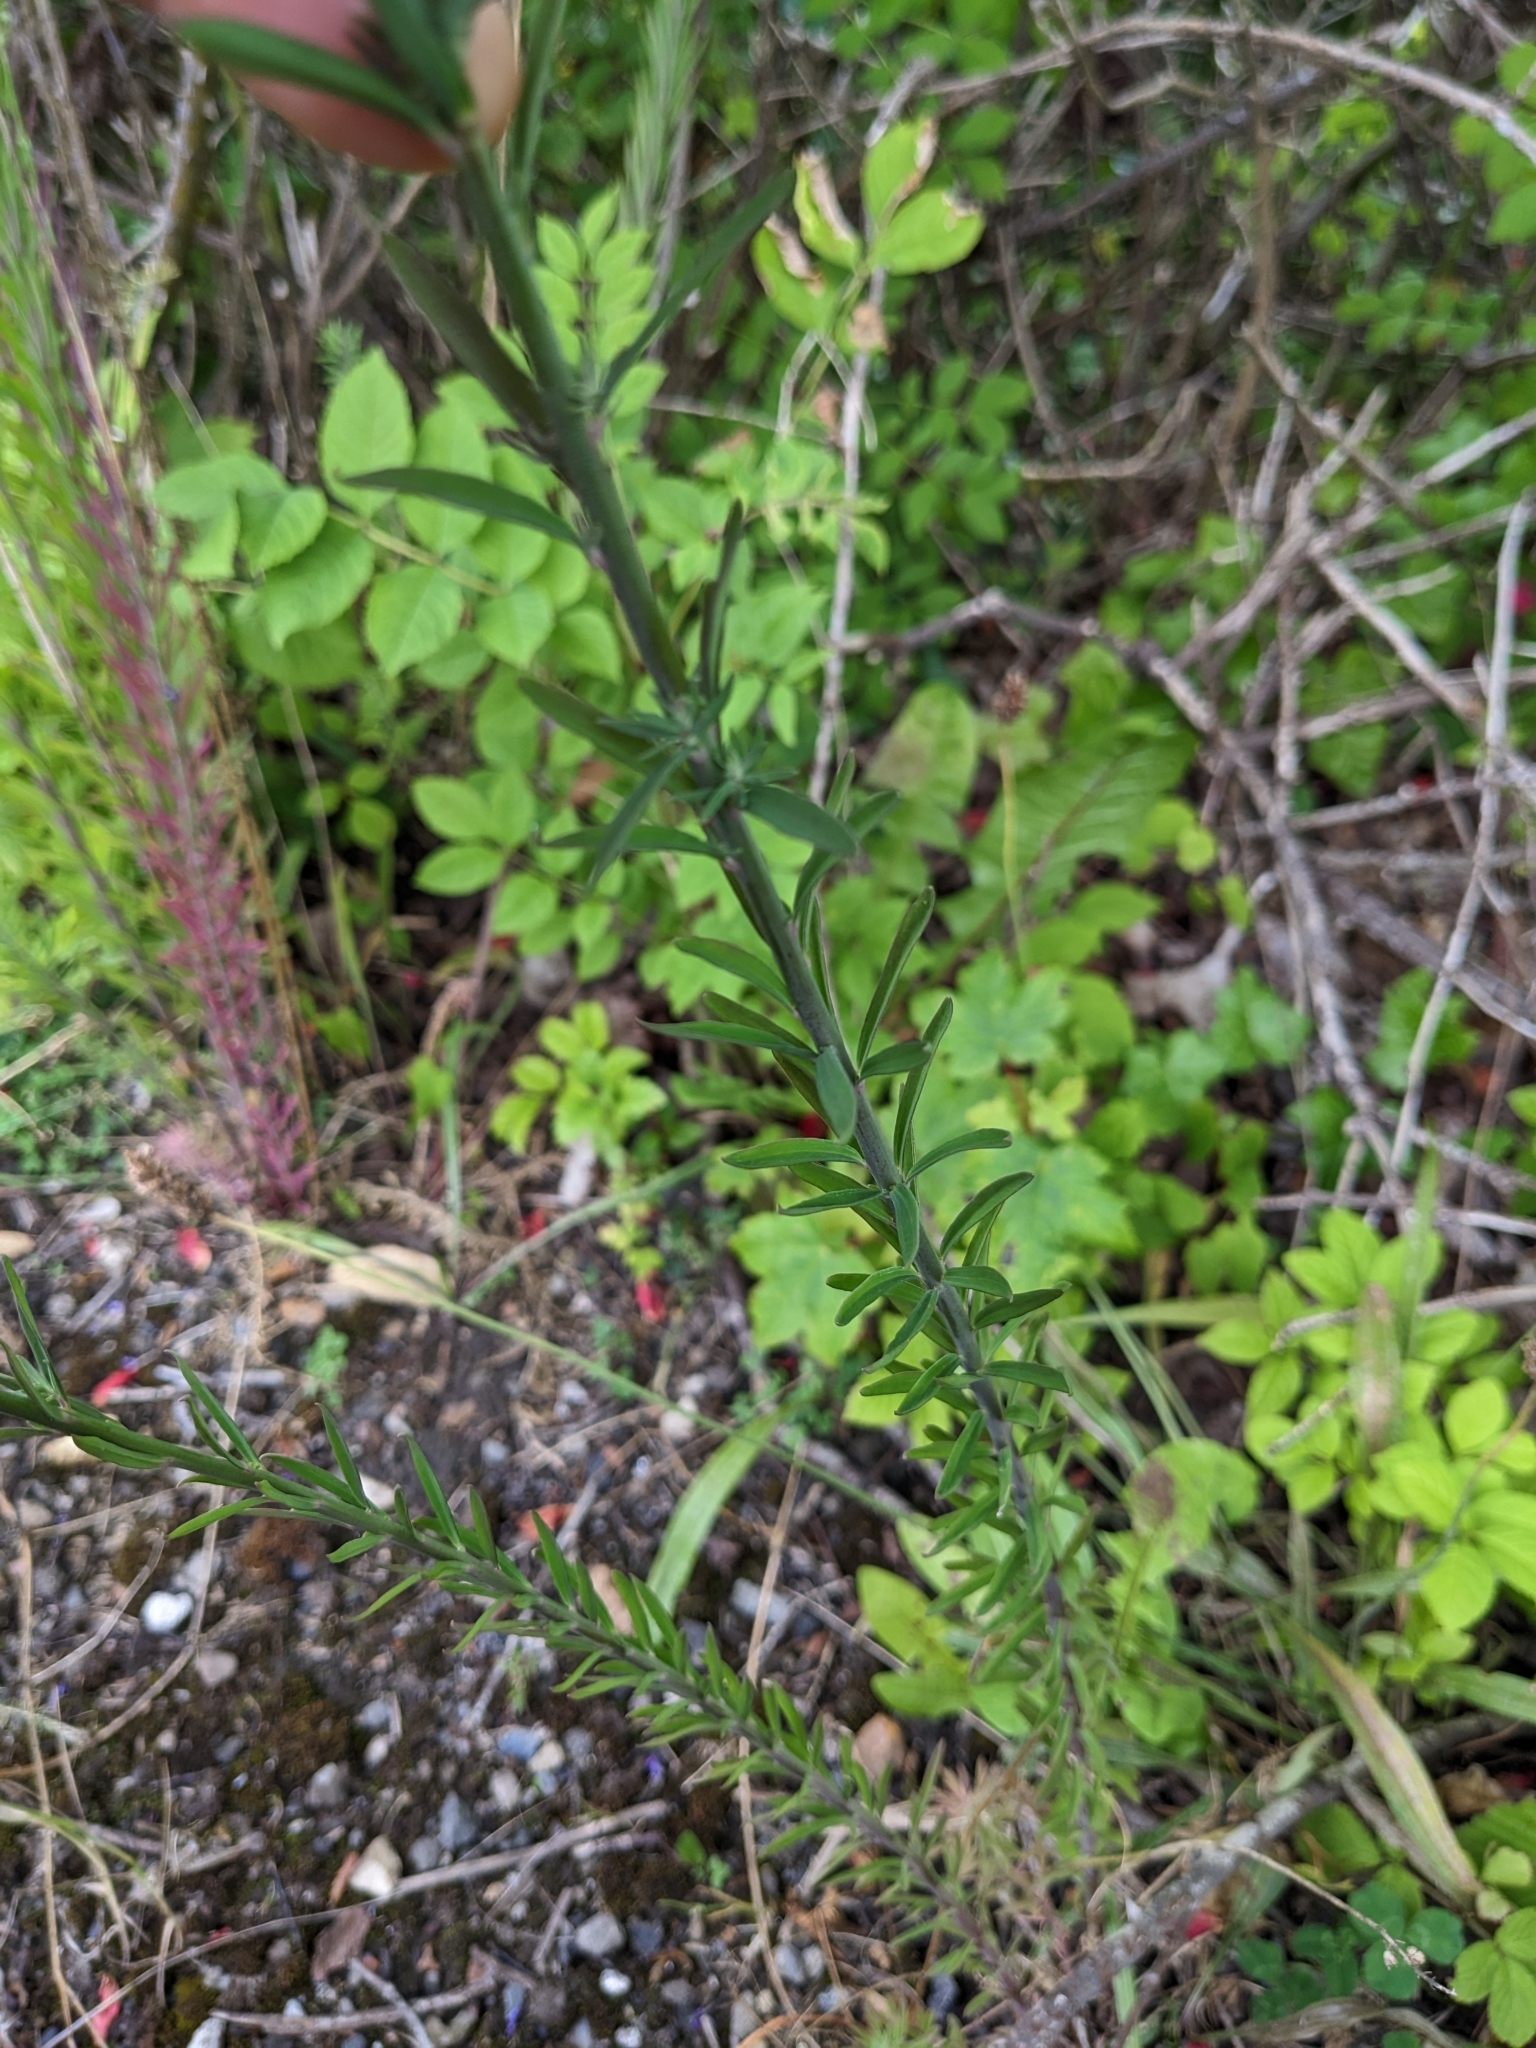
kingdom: Plantae
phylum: Tracheophyta
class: Magnoliopsida
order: Lamiales
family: Plantaginaceae
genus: Linaria
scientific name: Linaria purpurea
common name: Purple toadflax
